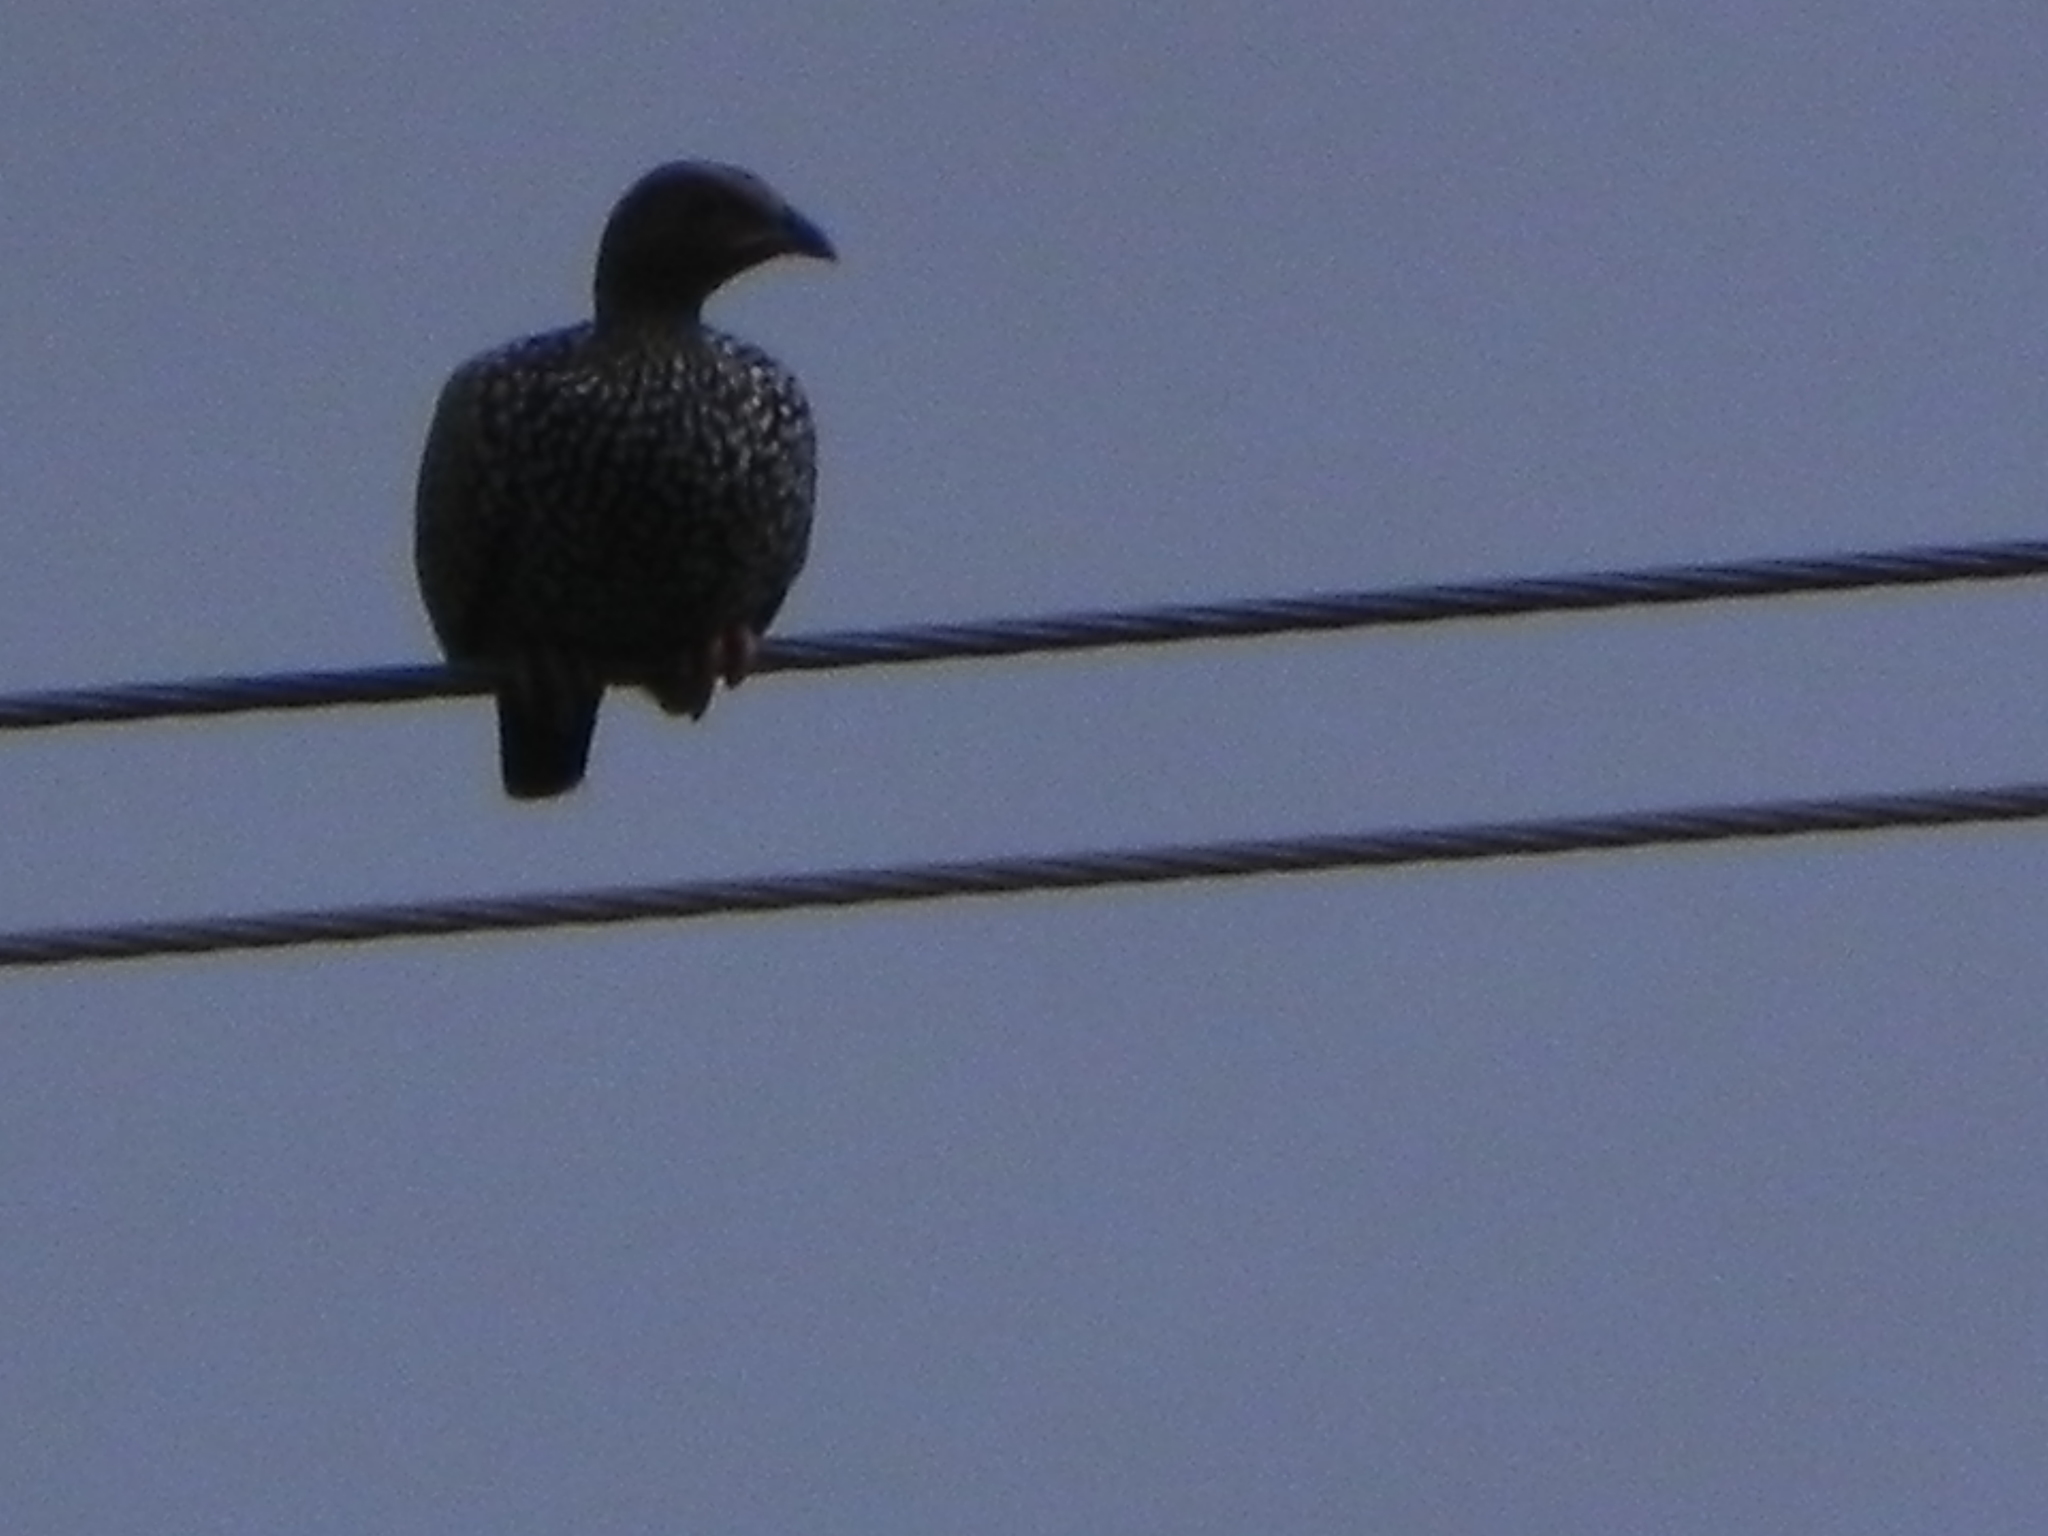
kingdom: Animalia
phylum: Chordata
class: Aves
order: Galliformes
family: Phasianidae
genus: Francolinus
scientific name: Francolinus pictus
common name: Painted francolin
